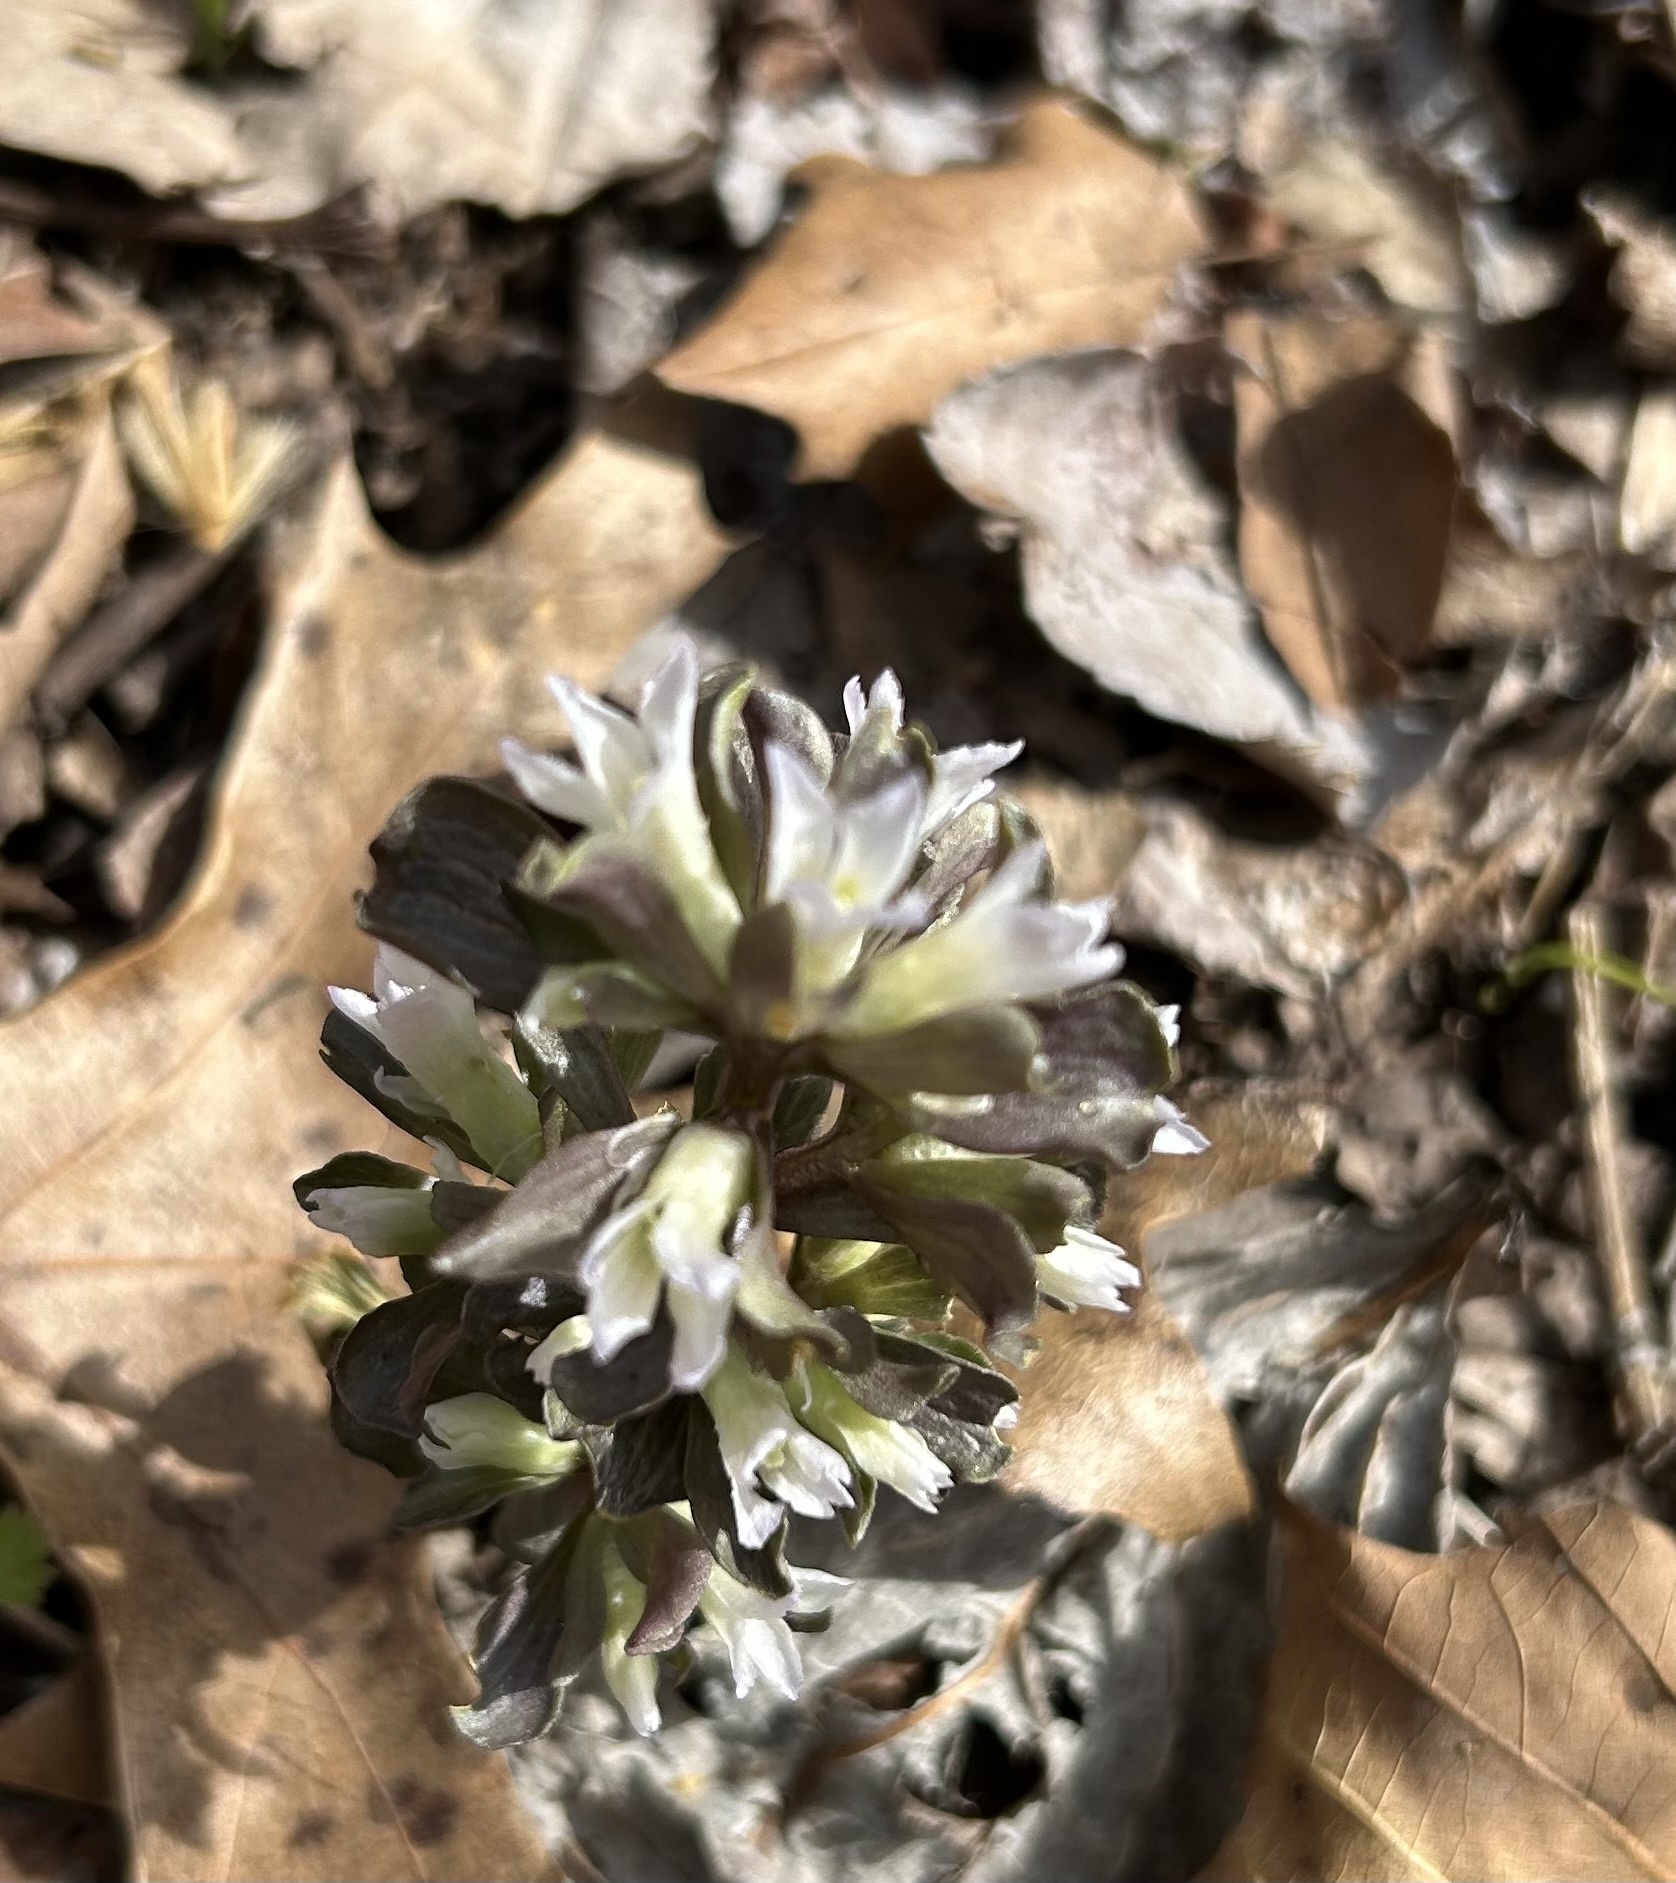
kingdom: Plantae
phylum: Tracheophyta
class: Magnoliopsida
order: Gentianales
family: Gentianaceae
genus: Obolaria
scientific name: Obolaria virginica
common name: Pennywort
